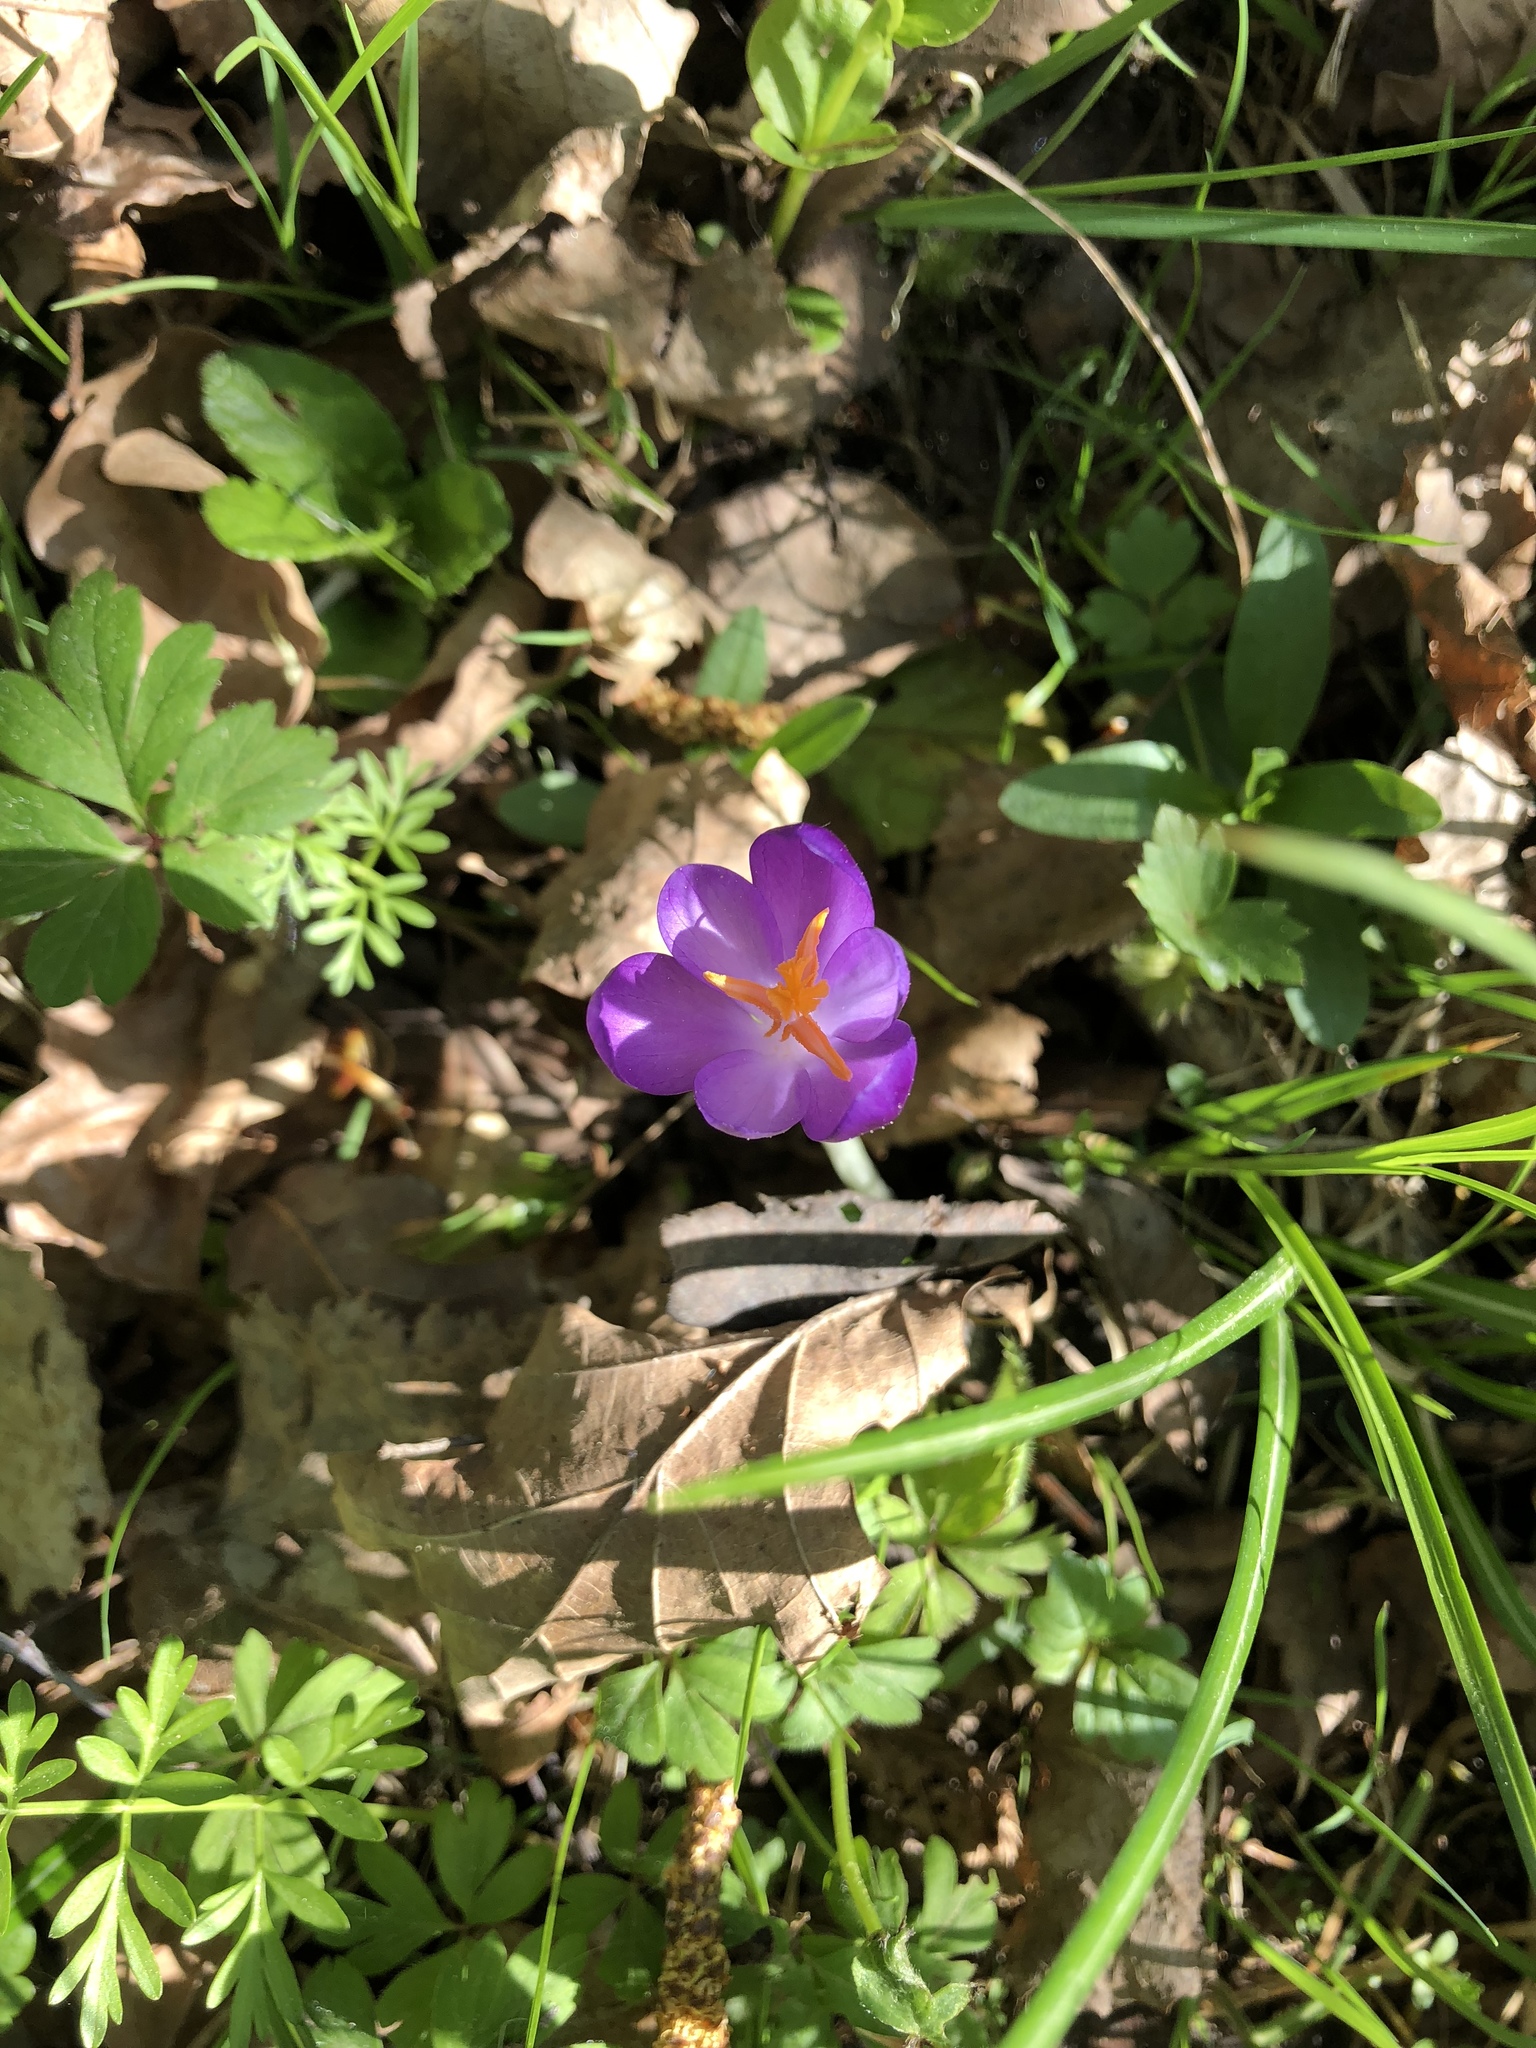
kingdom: Plantae
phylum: Tracheophyta
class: Liliopsida
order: Asparagales
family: Iridaceae
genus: Crocus
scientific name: Crocus heuffelianus
